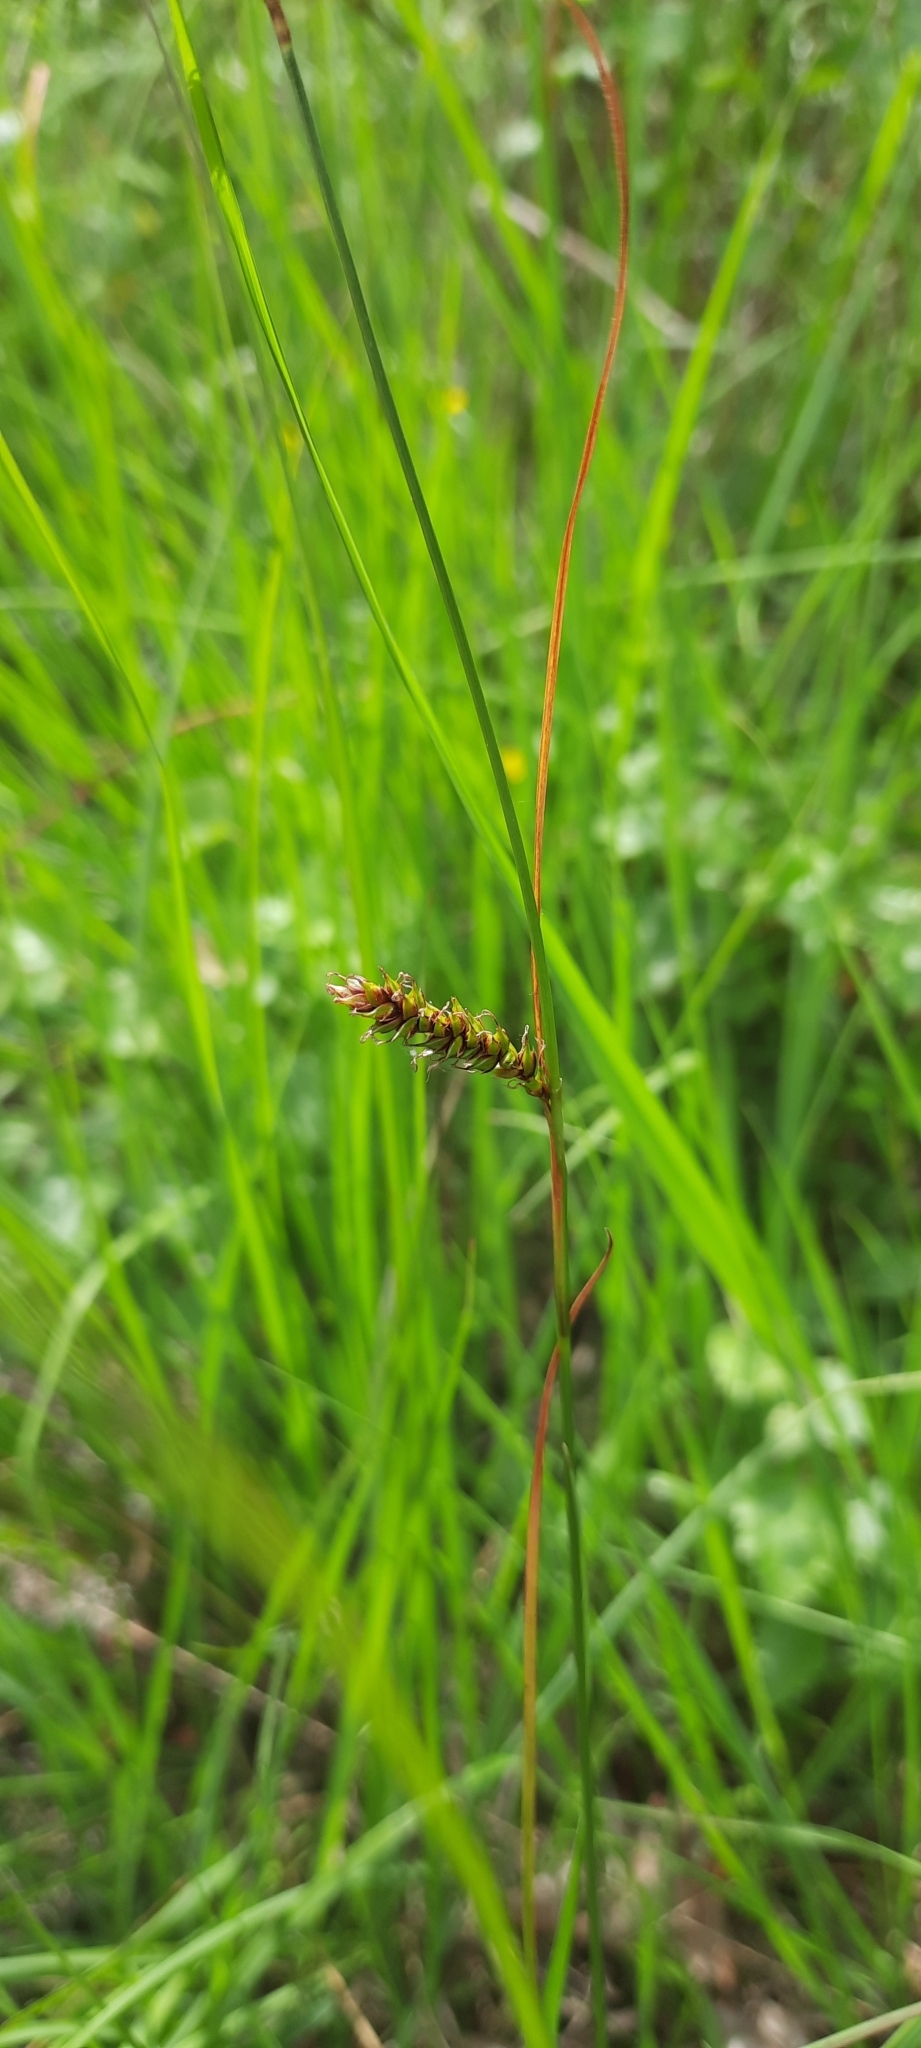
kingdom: Plantae
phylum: Tracheophyta
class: Liliopsida
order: Poales
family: Cyperaceae
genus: Carex
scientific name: Carex binervis
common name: Green-ribbed sedge
